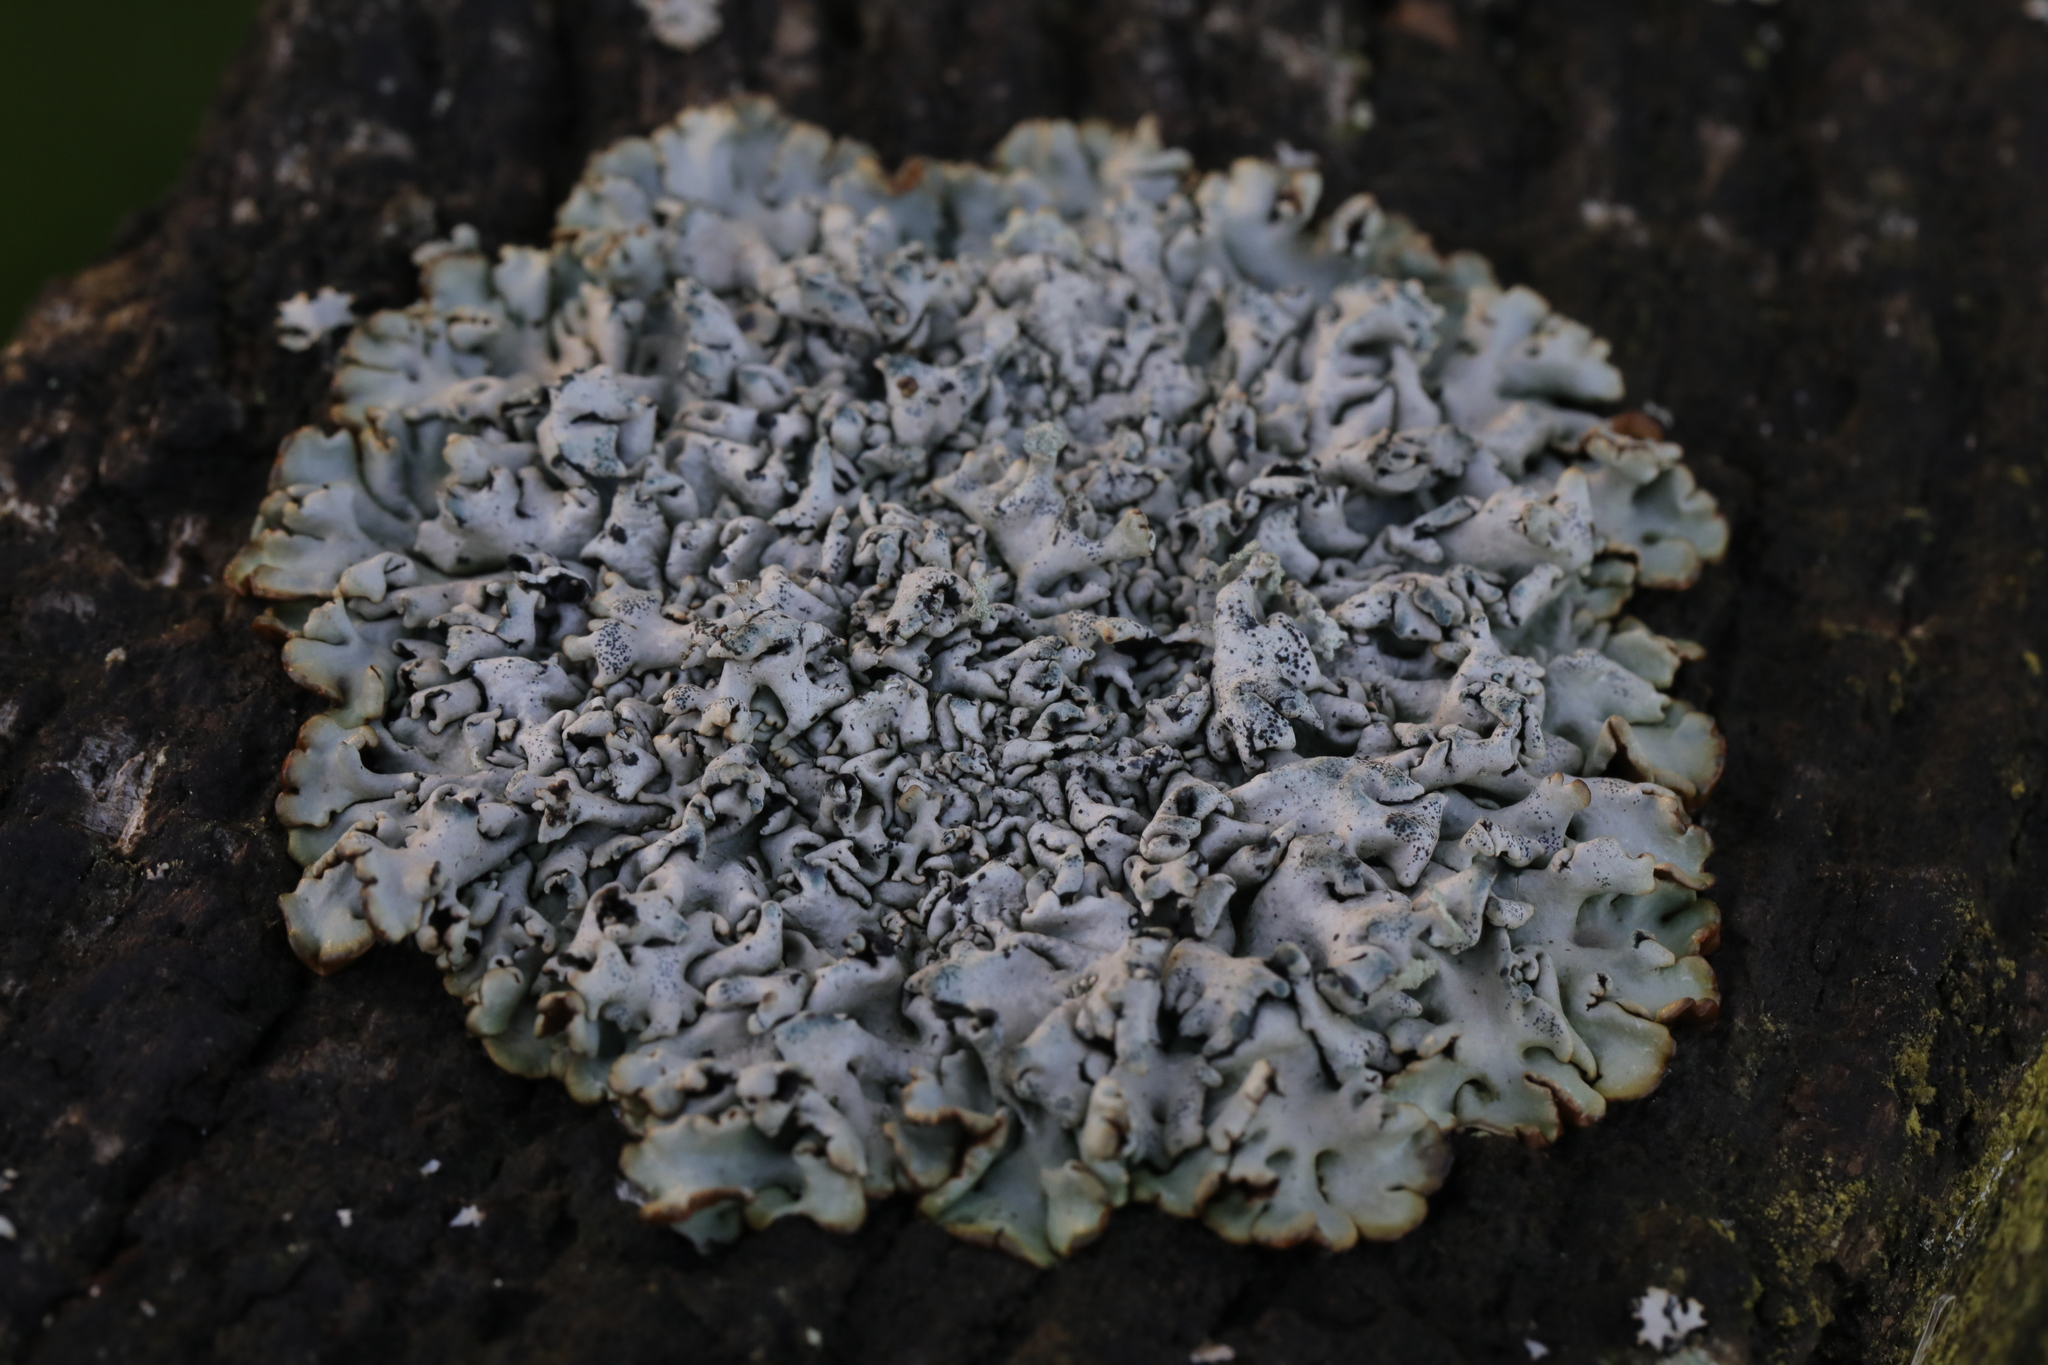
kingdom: Fungi
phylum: Ascomycota
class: Lecanoromycetes
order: Lecanorales
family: Parmeliaceae
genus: Hypogymnia
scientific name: Hypogymnia physodes
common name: Dark crottle
